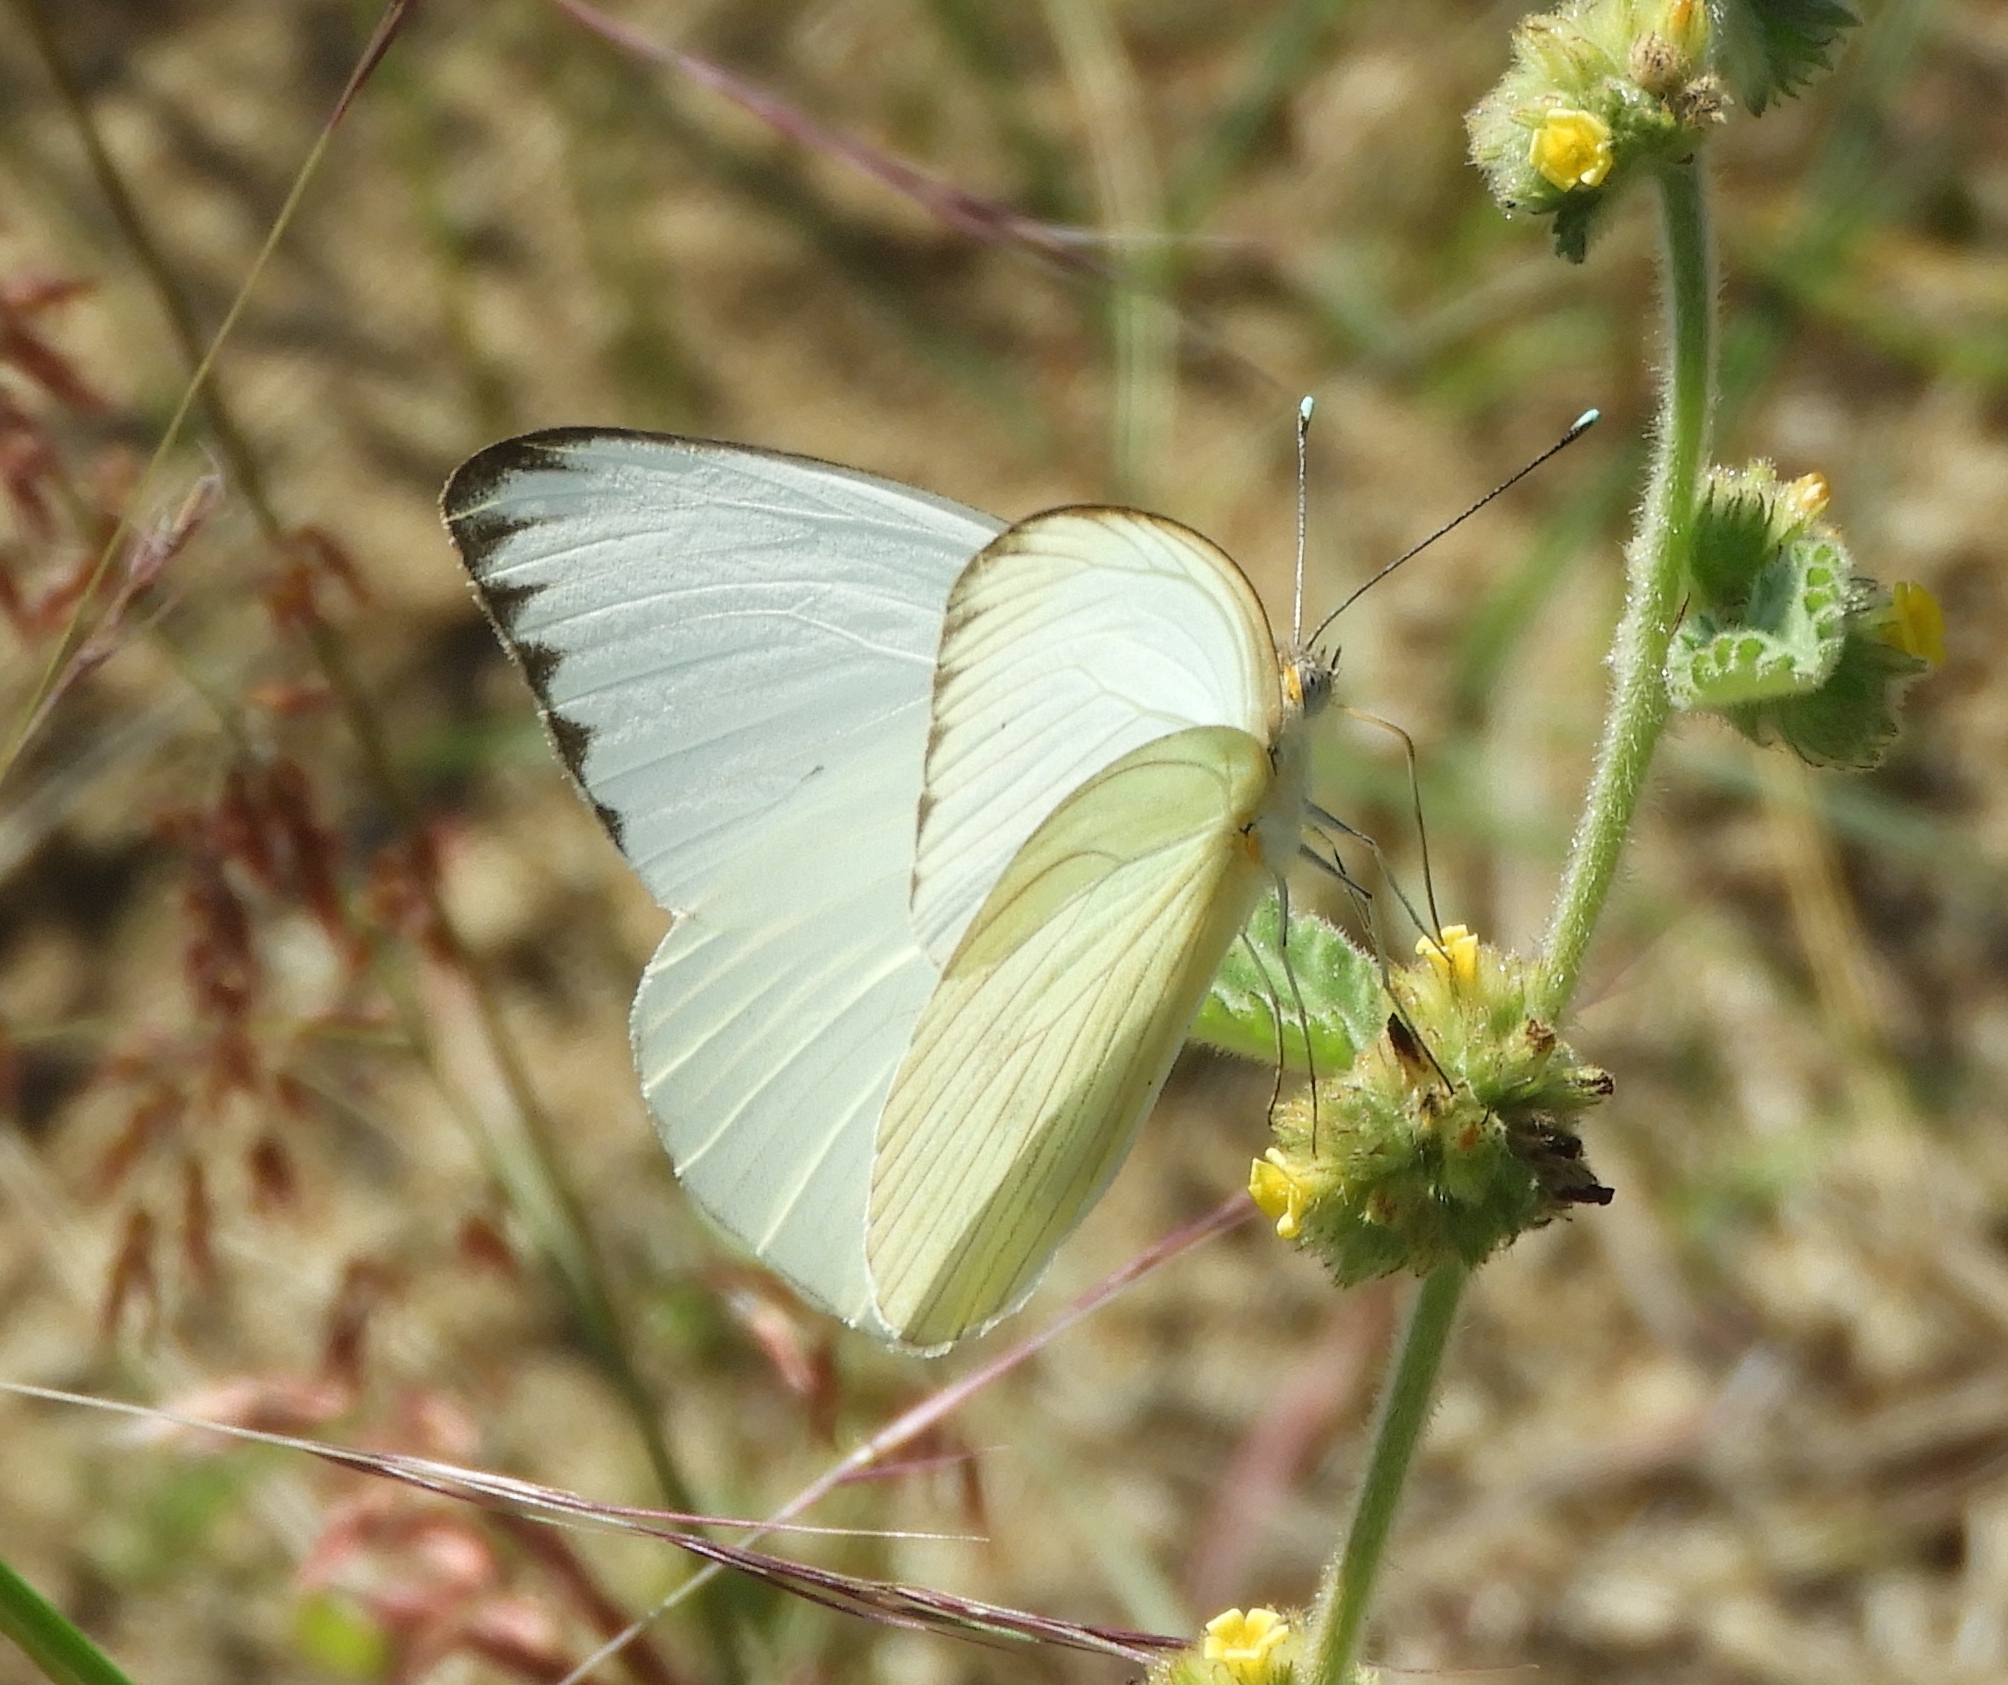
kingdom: Animalia
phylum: Arthropoda
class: Insecta
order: Lepidoptera
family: Pieridae
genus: Ascia
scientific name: Ascia monuste
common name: Great southern white
